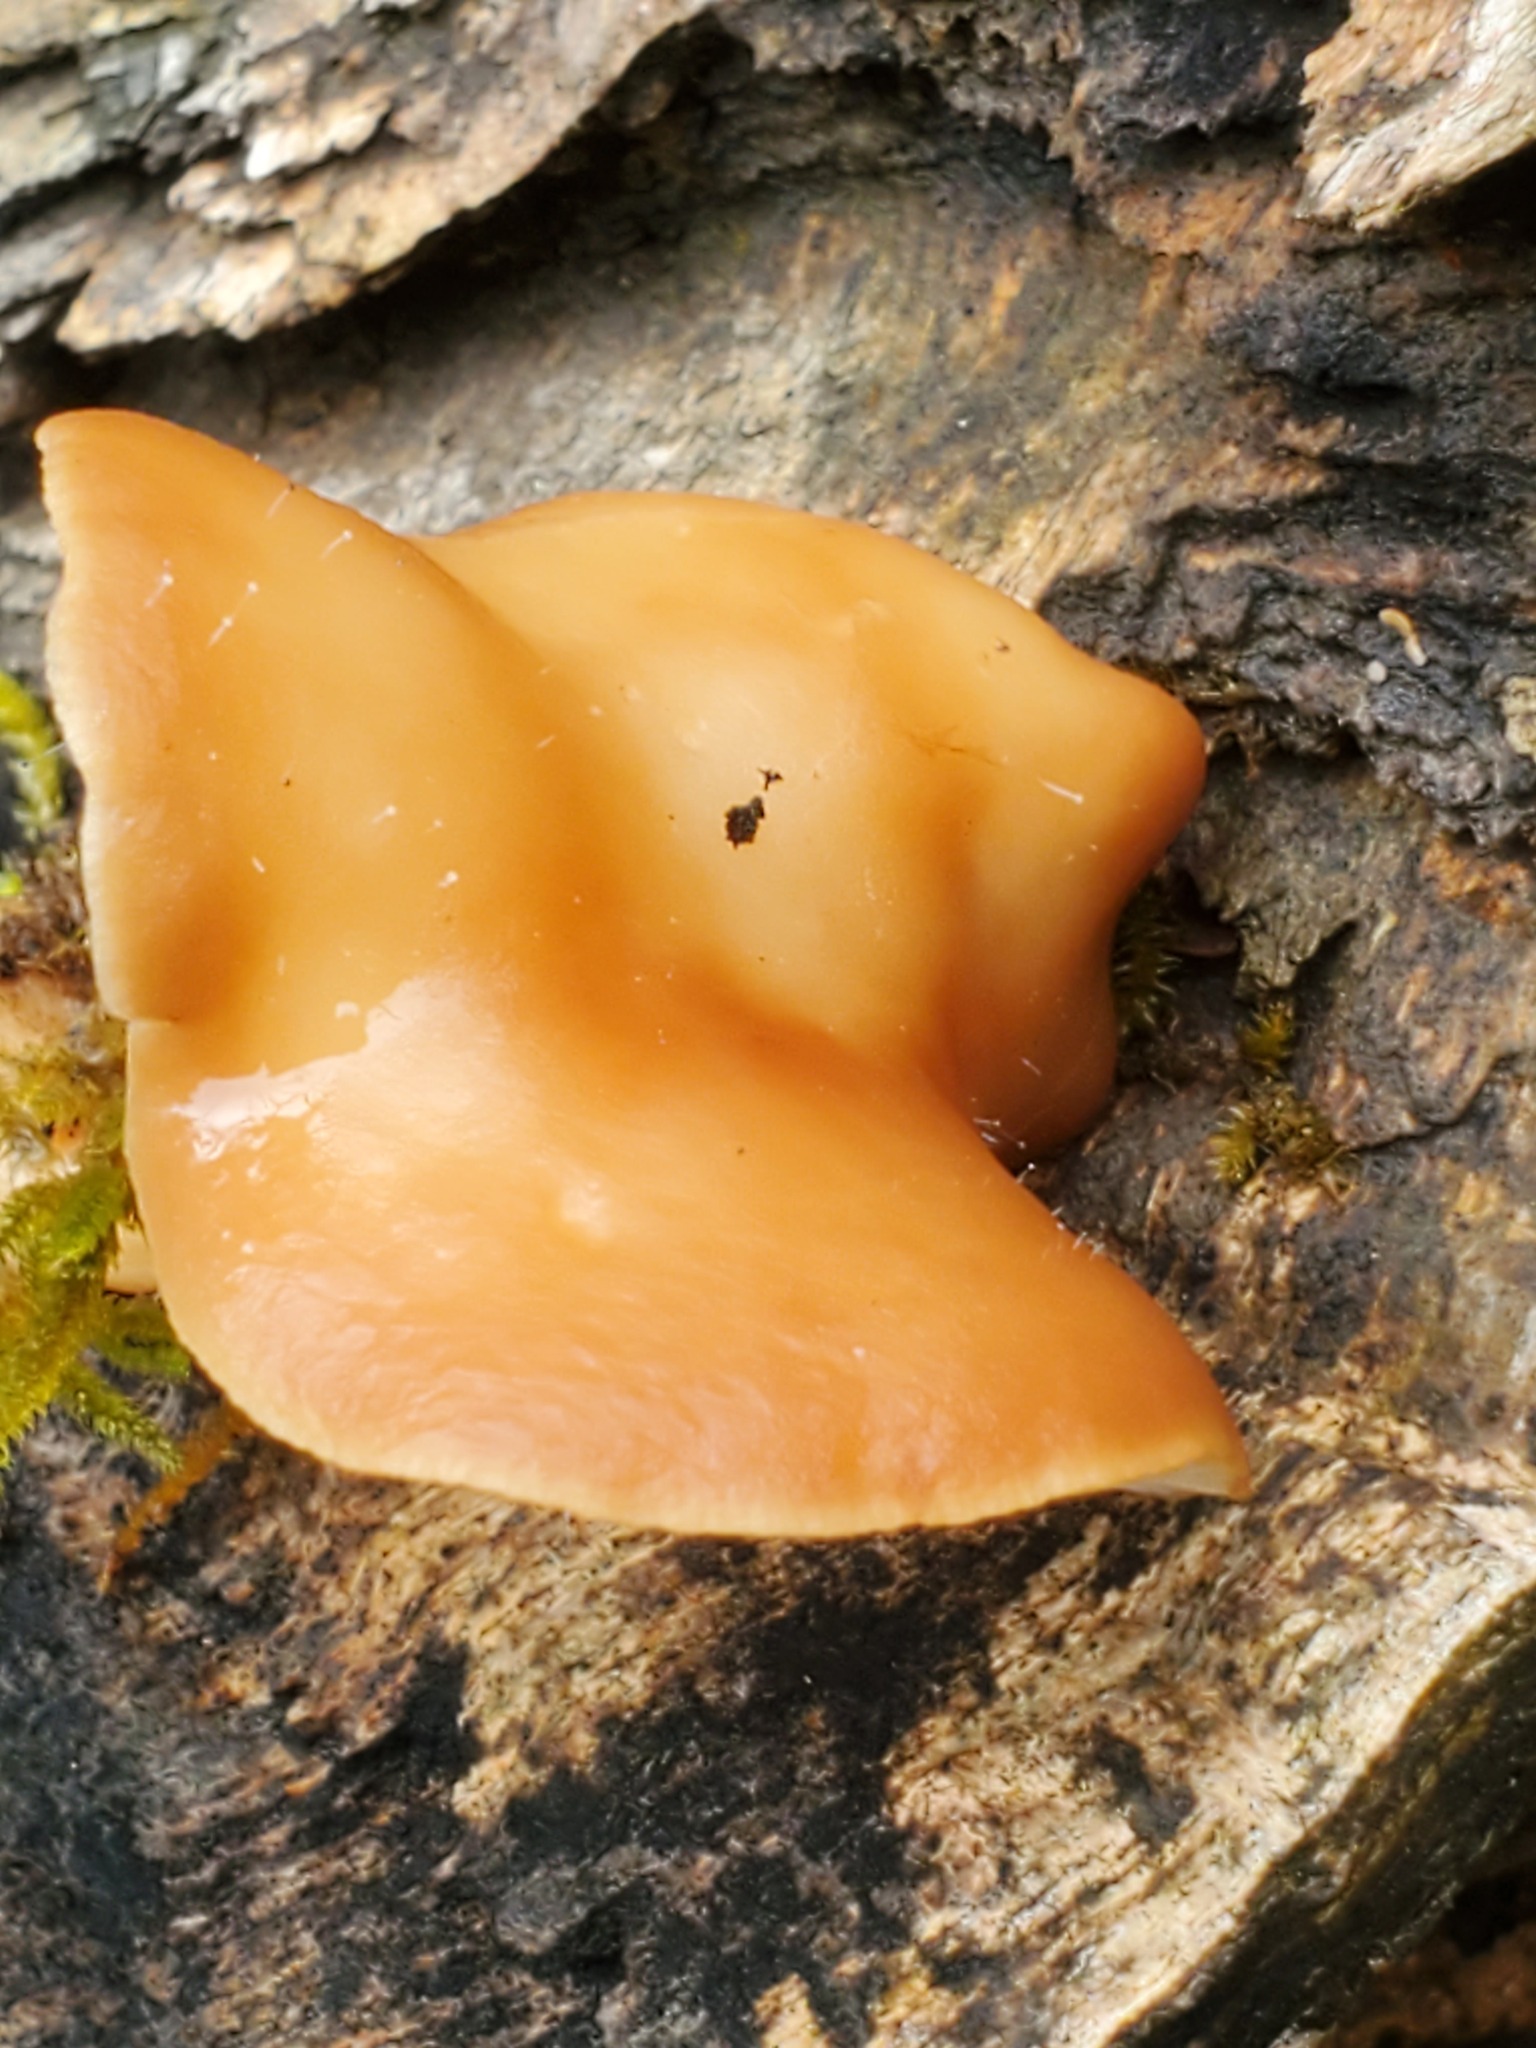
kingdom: Fungi
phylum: Basidiomycota
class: Agaricomycetes
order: Agaricales
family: Omphalotaceae
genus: Gymnopus
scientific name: Gymnopus dryophilus
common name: Penny top
